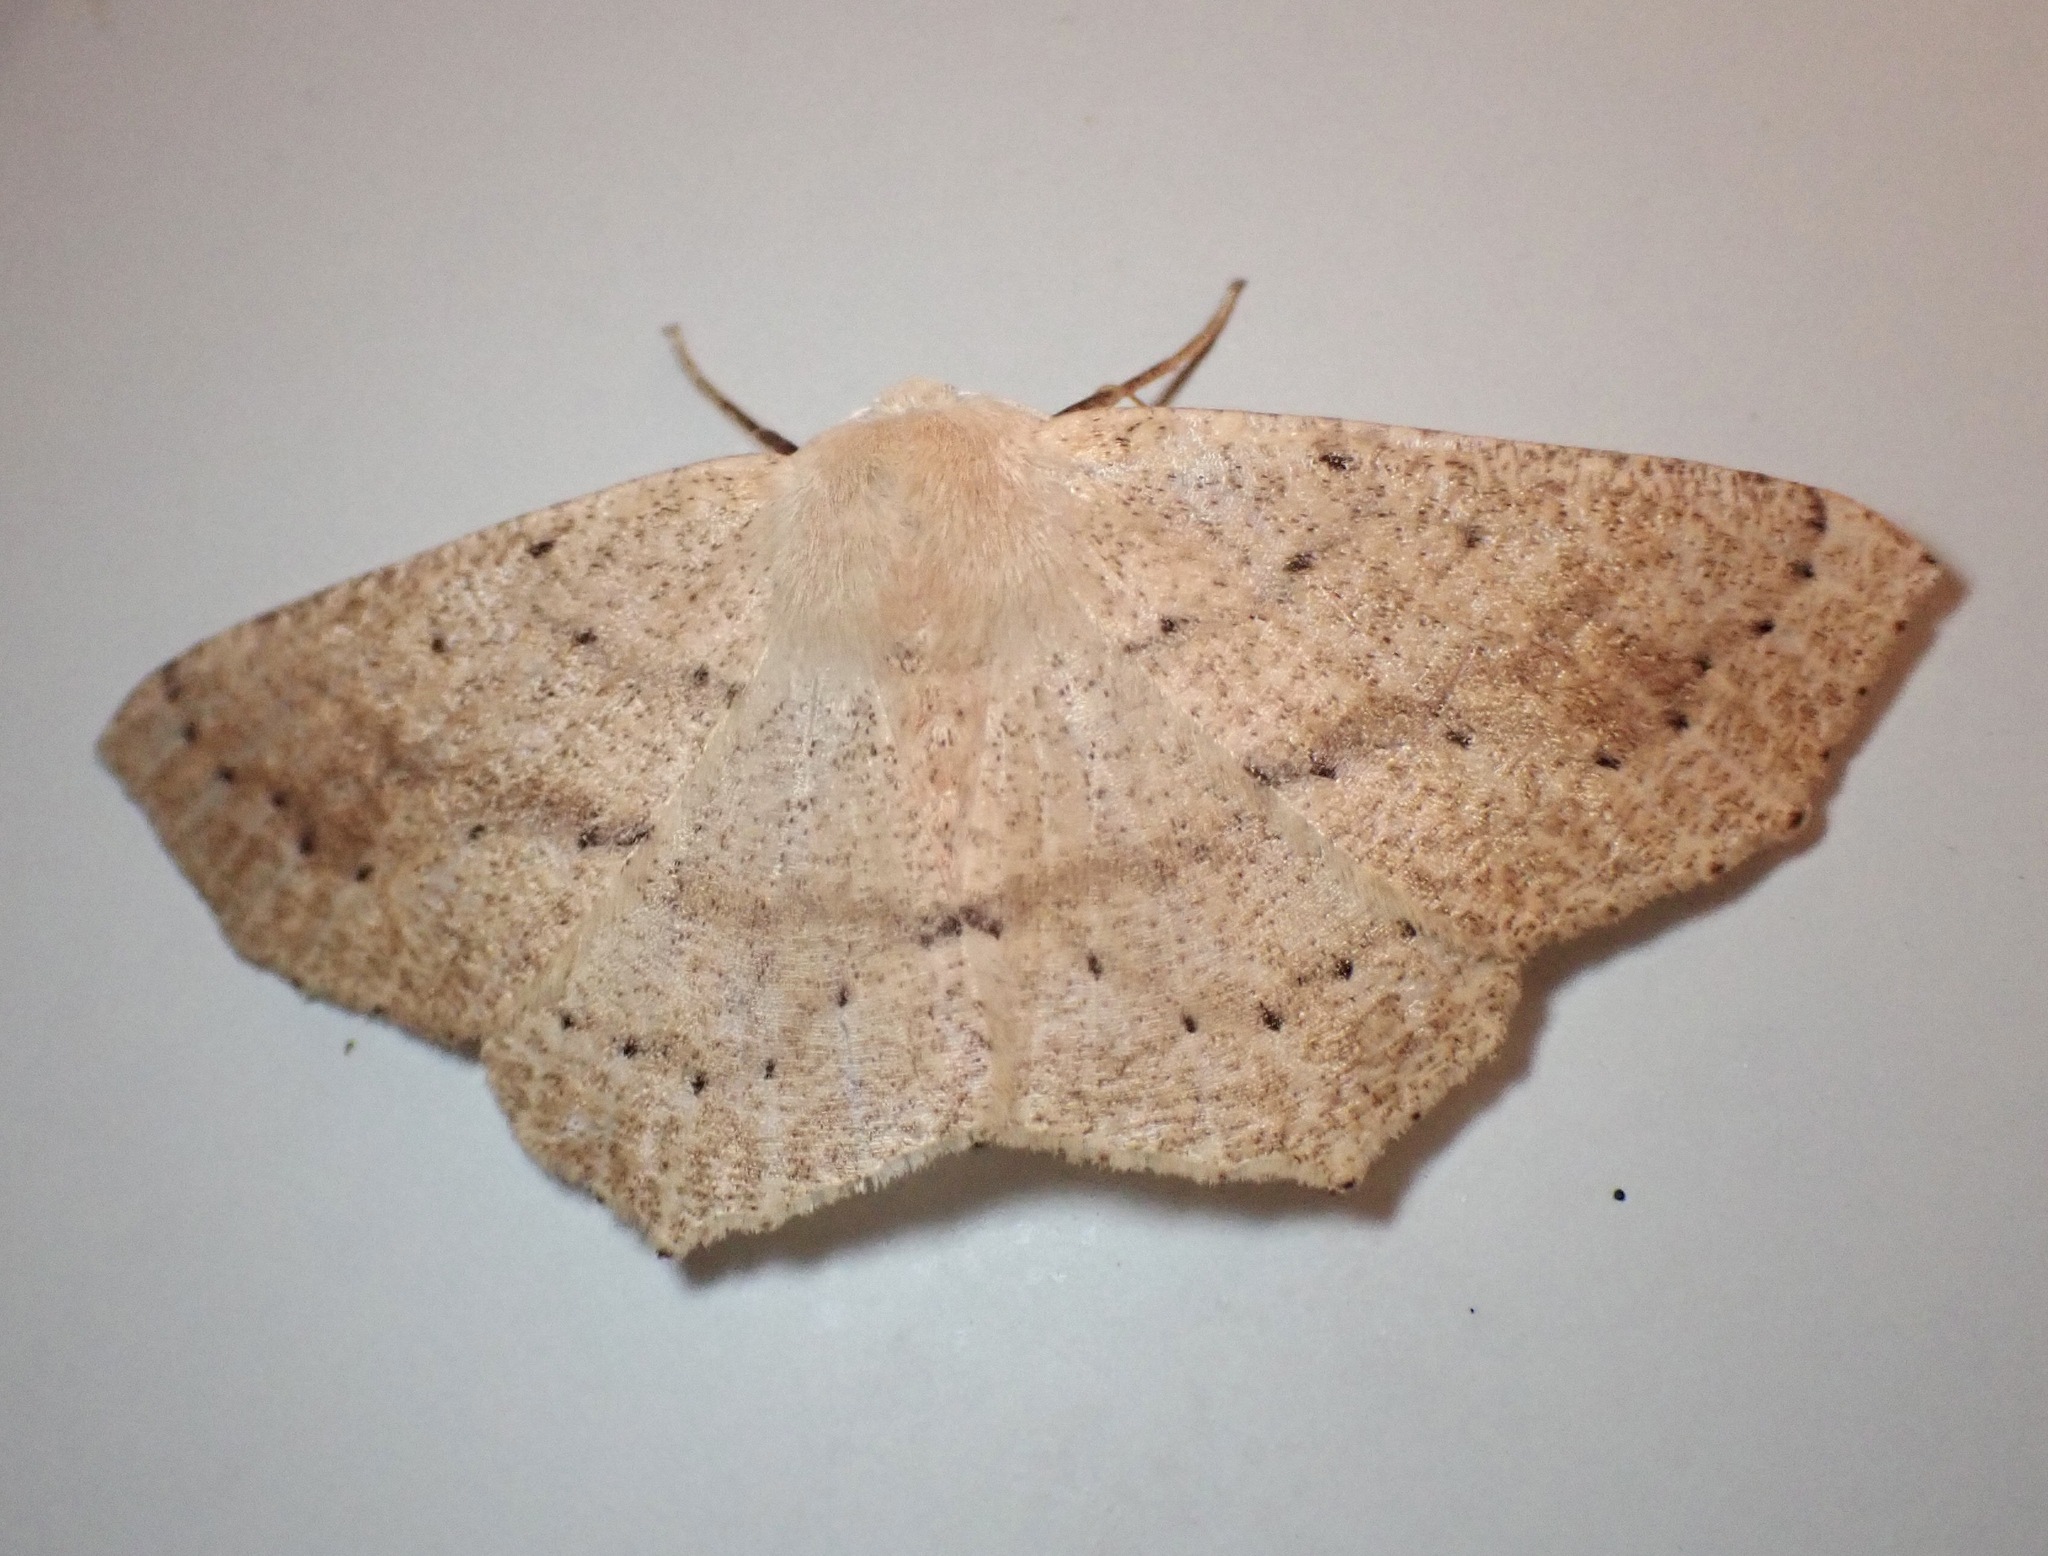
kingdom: Animalia
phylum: Arthropoda
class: Insecta
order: Lepidoptera
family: Geometridae
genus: Sabulodes
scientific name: Sabulodes aegrotata
